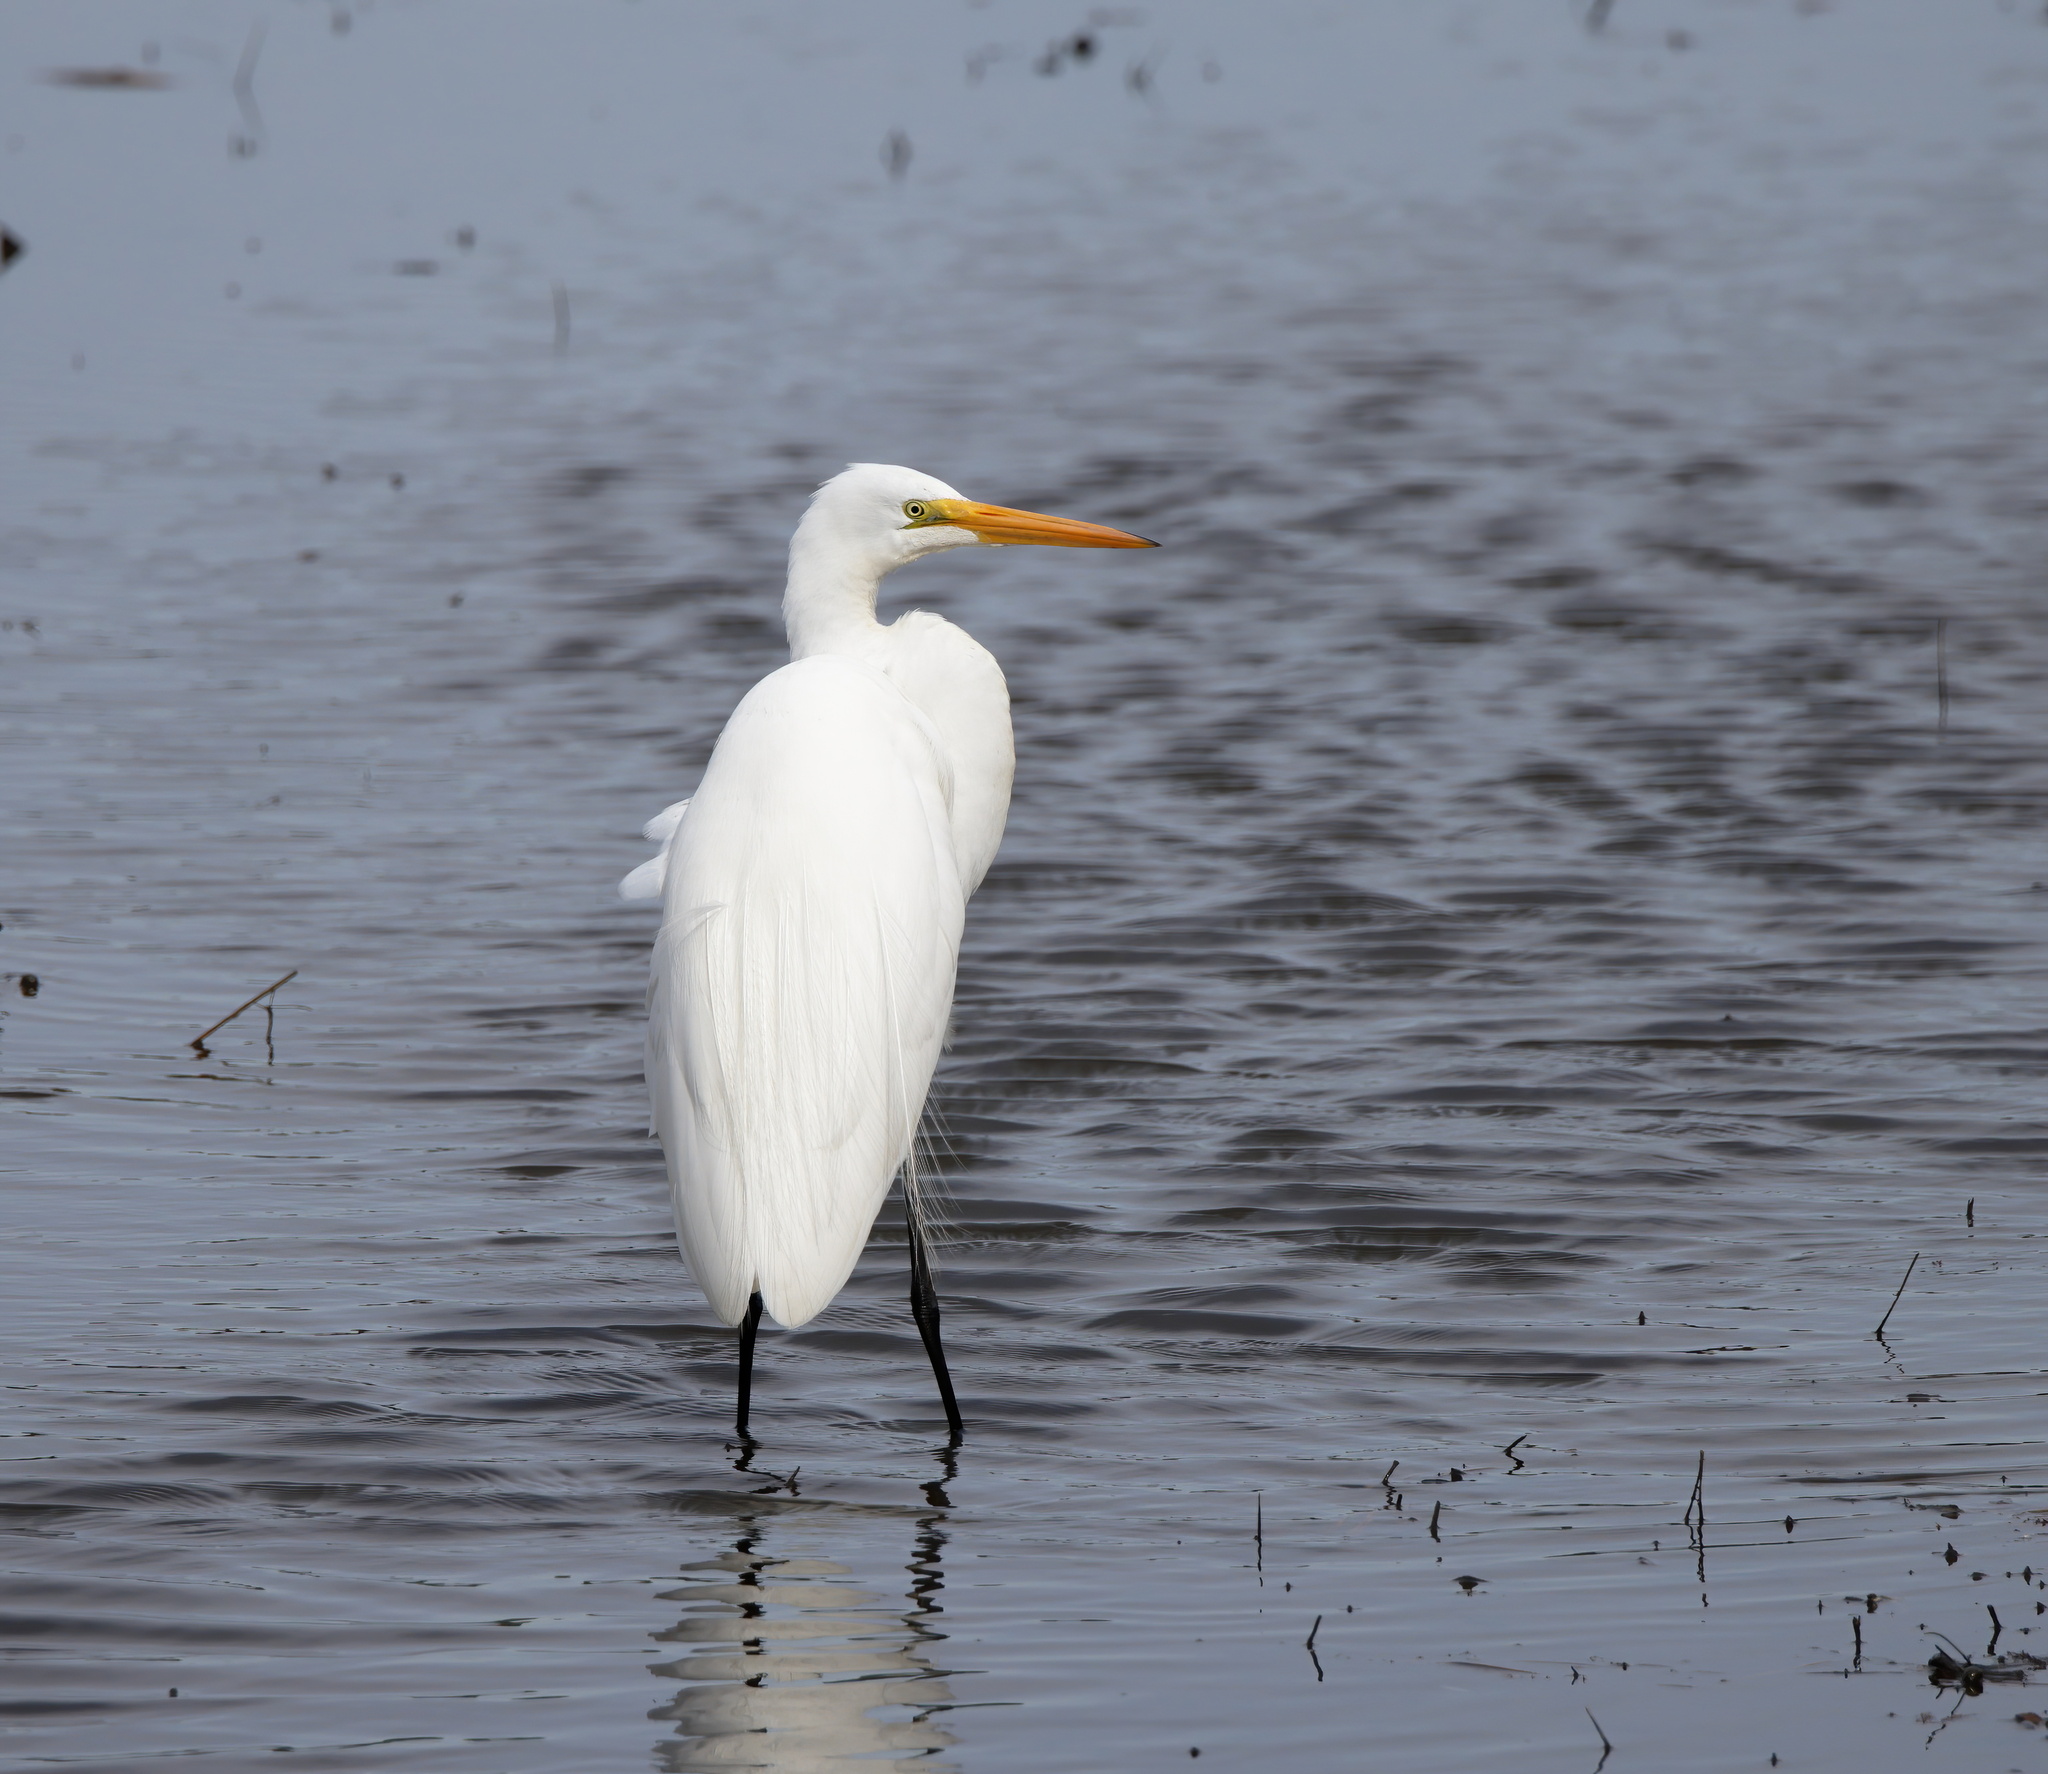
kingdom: Animalia
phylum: Chordata
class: Aves
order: Pelecaniformes
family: Ardeidae
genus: Ardea
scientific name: Ardea alba
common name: Great egret
